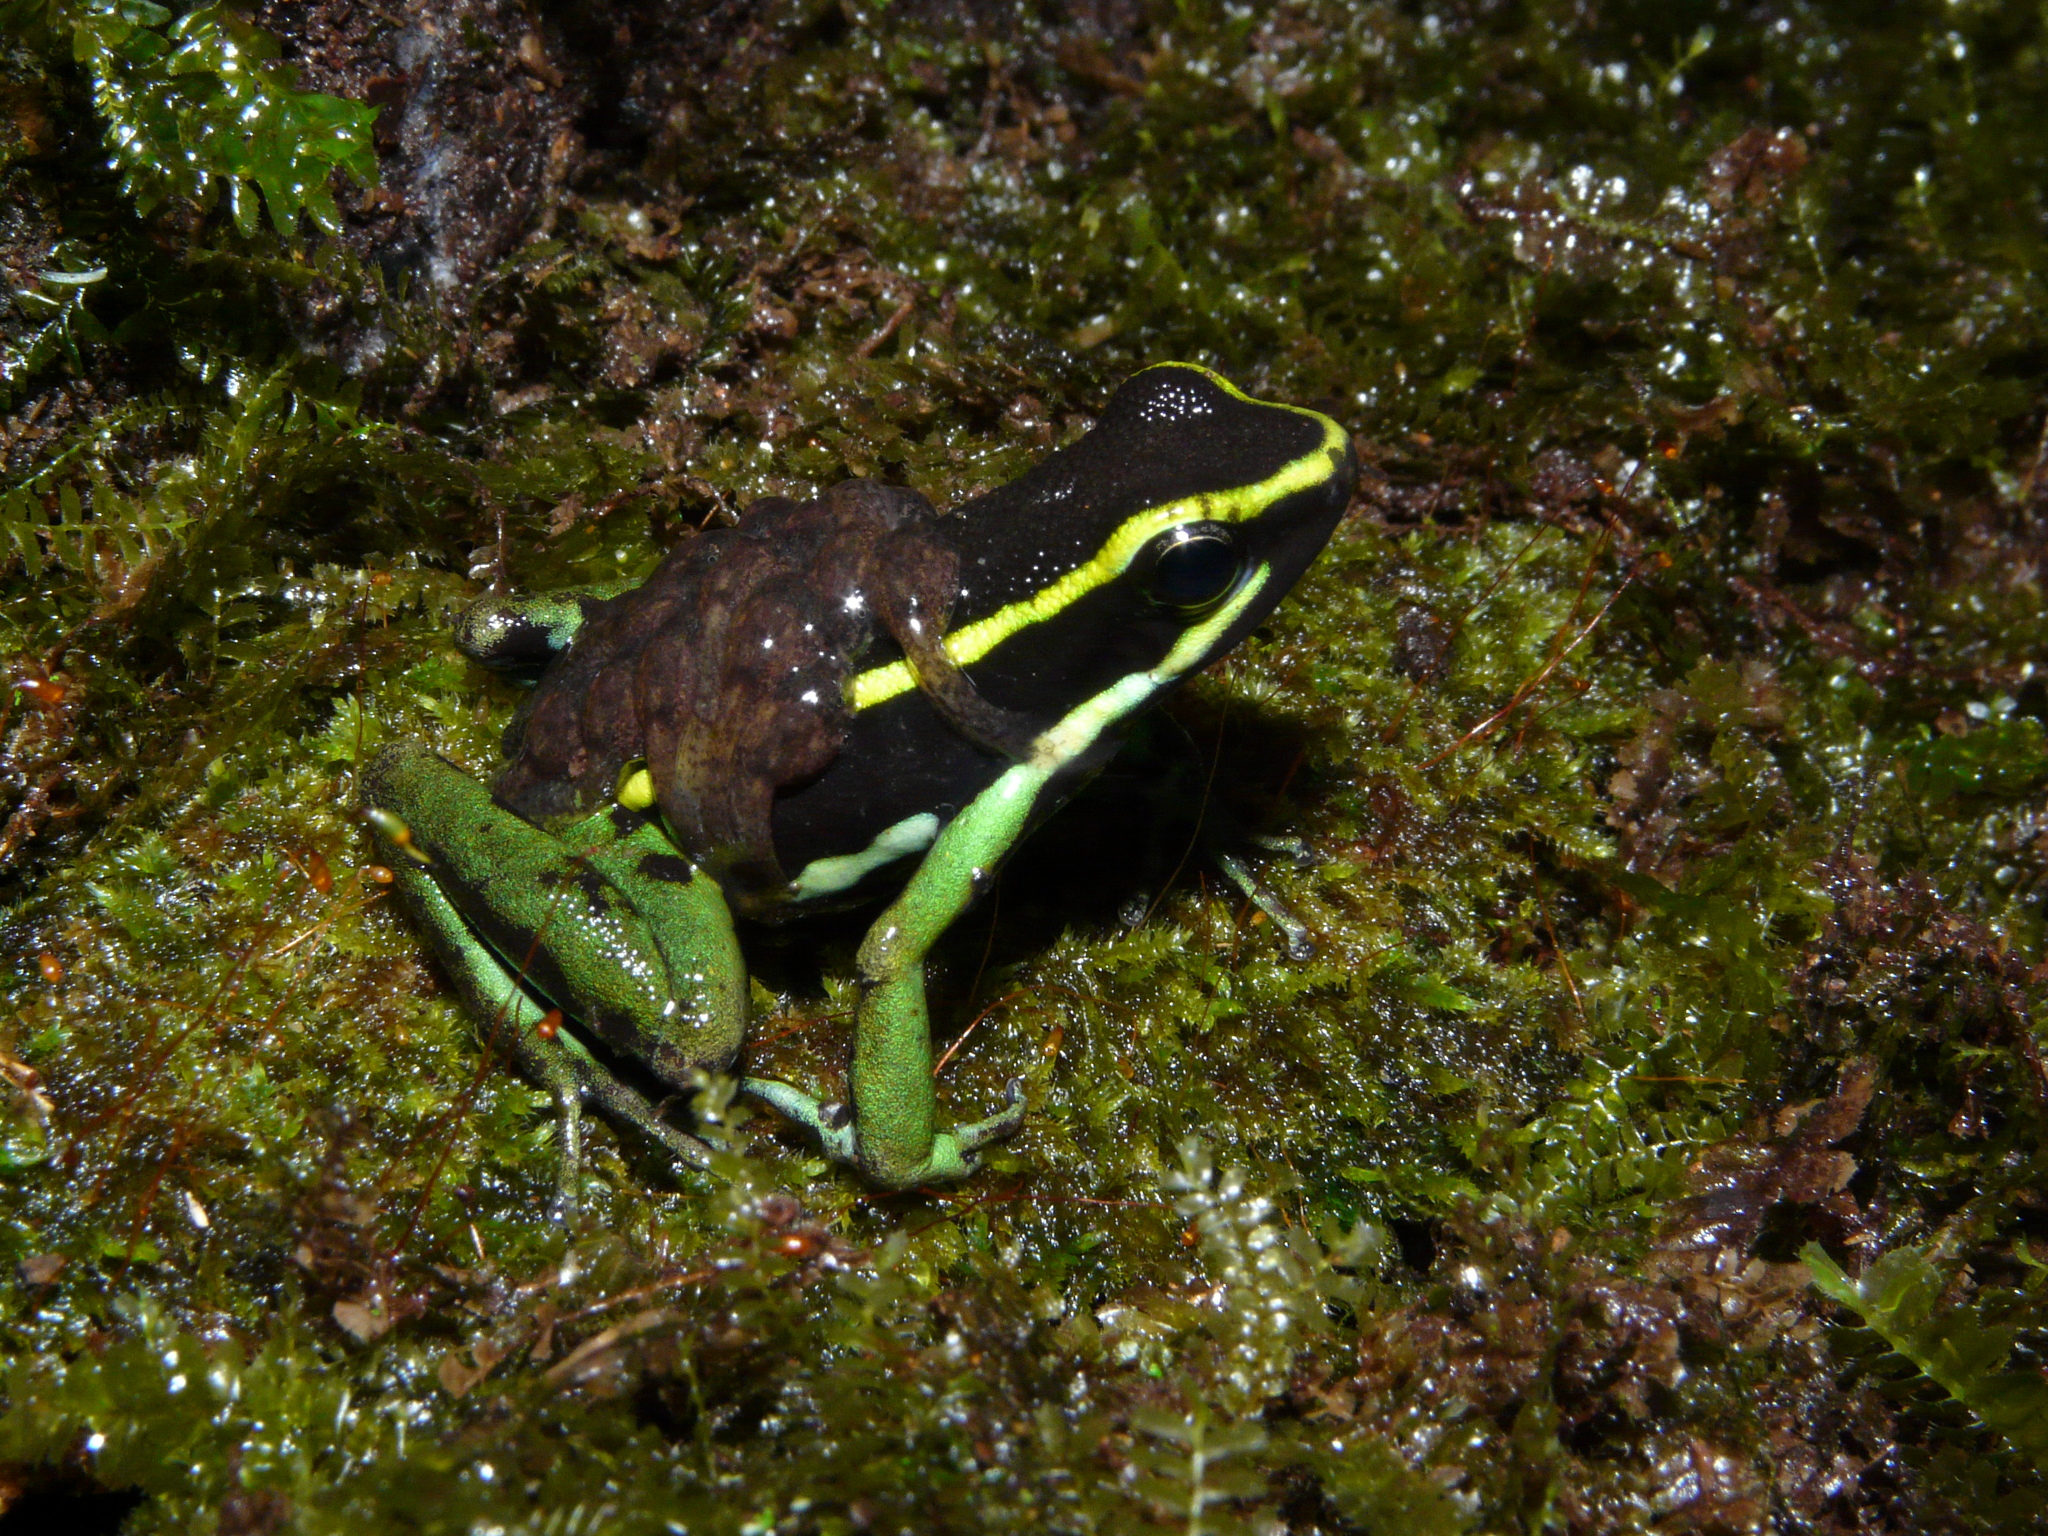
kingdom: Animalia
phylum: Chordata
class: Amphibia
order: Anura
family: Dendrobatidae
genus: Ameerega
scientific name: Ameerega trivittata
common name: Three-striped arrow-poison frog
